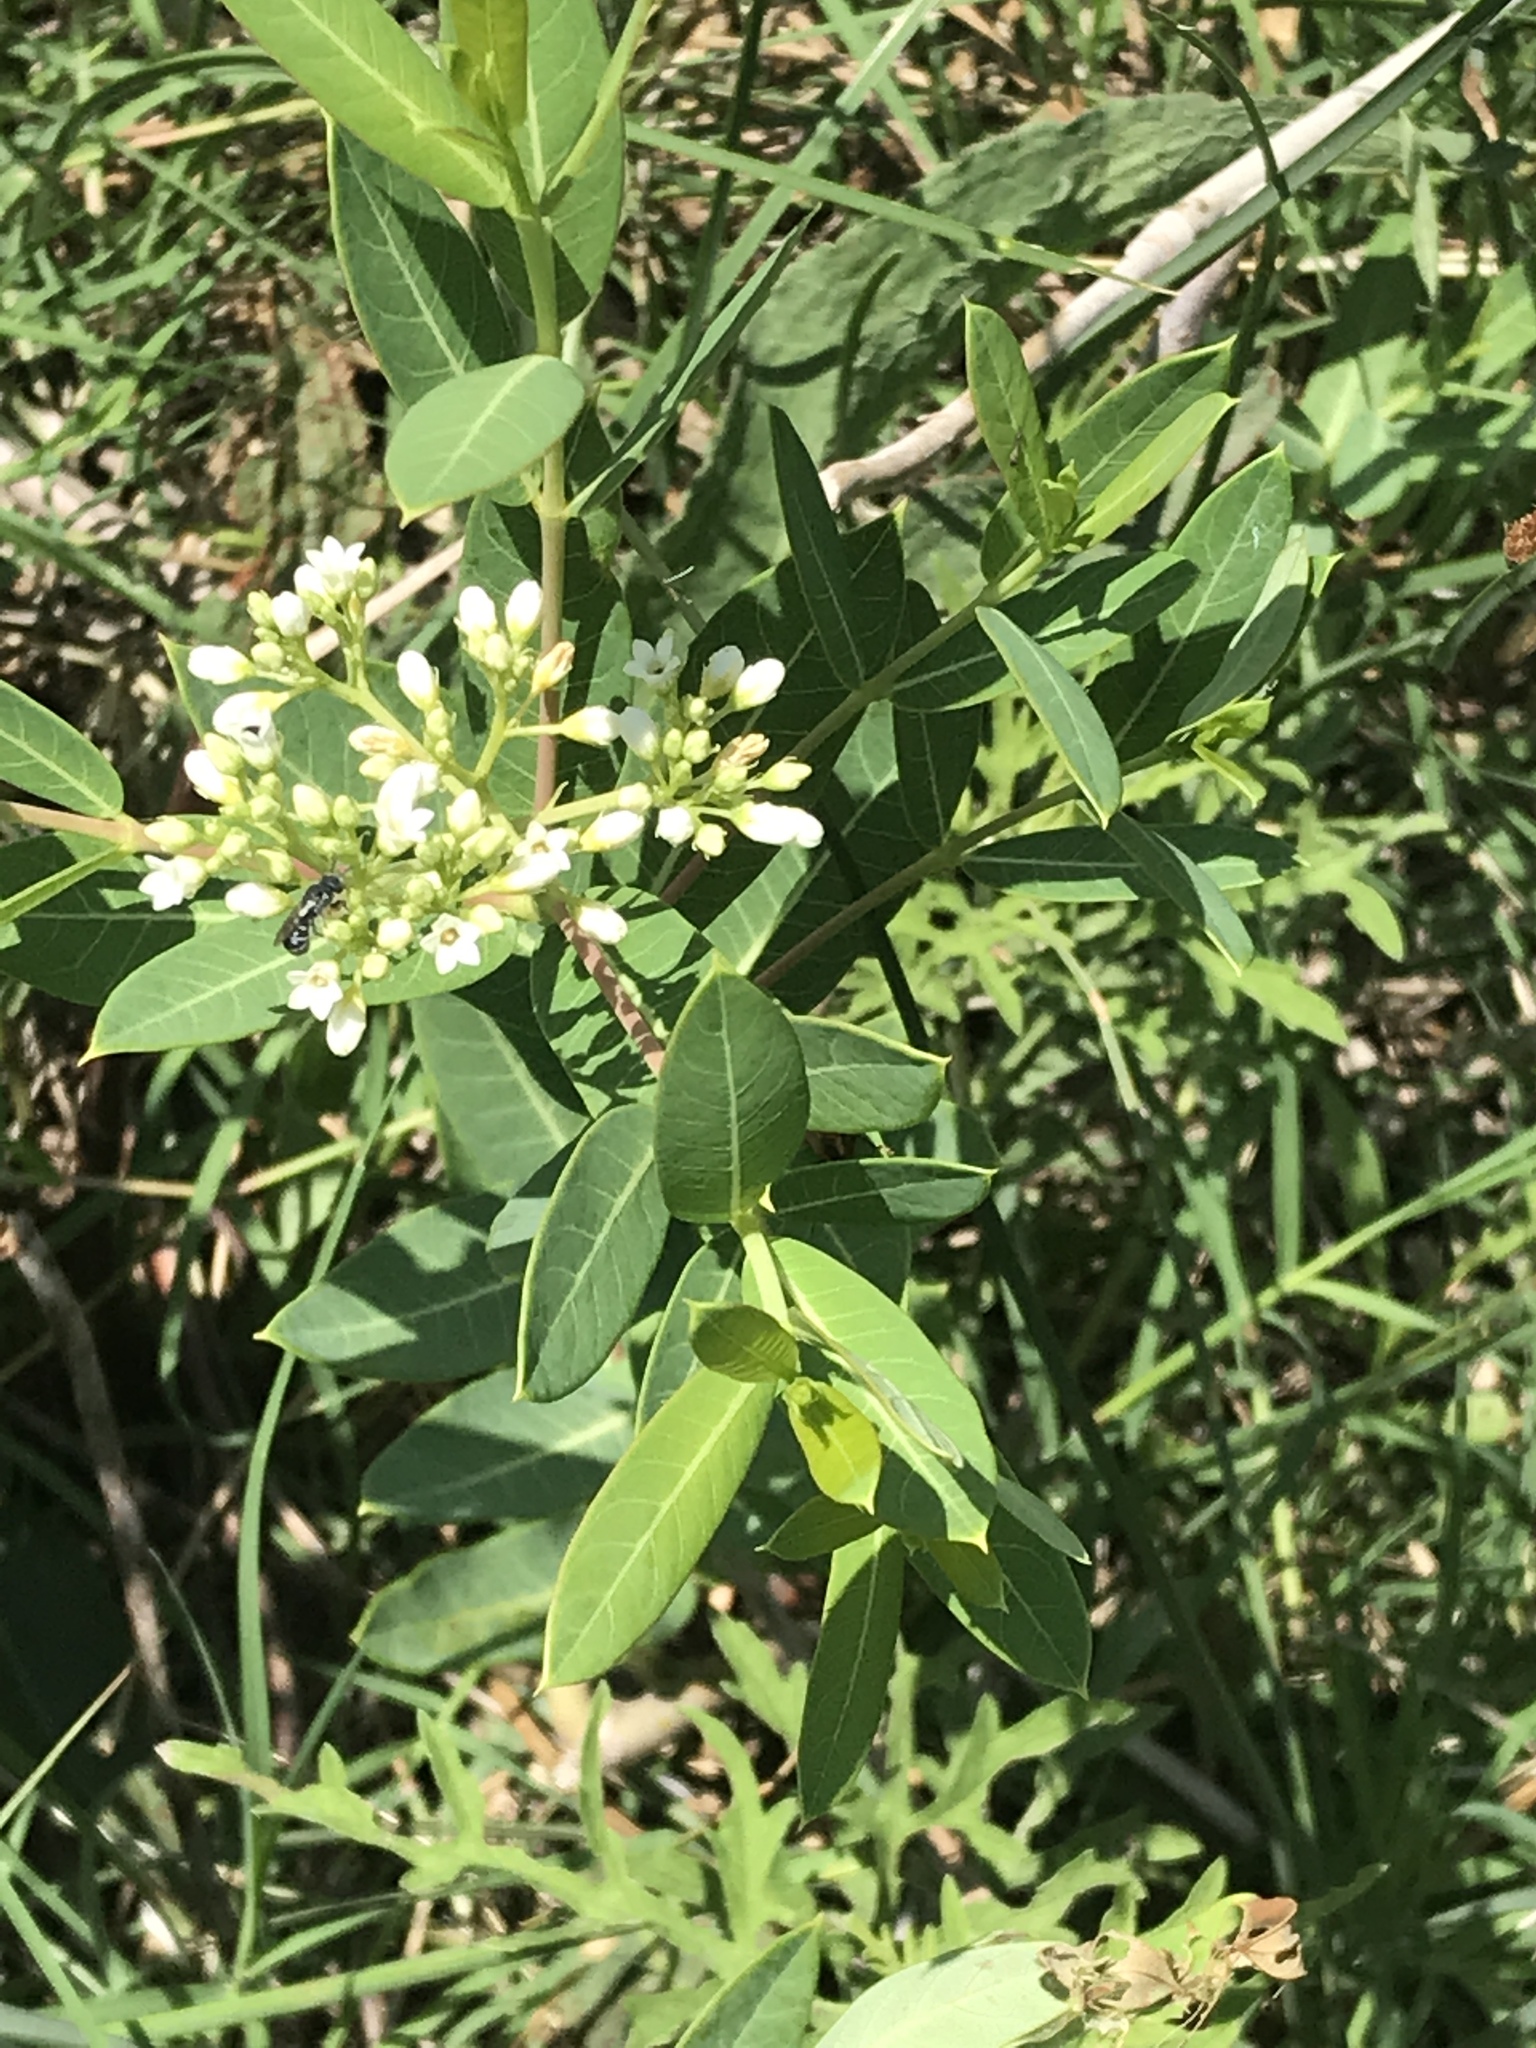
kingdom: Plantae
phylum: Tracheophyta
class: Magnoliopsida
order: Gentianales
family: Apocynaceae
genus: Apocynum
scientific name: Apocynum cannabinum
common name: Hemp dogbane
